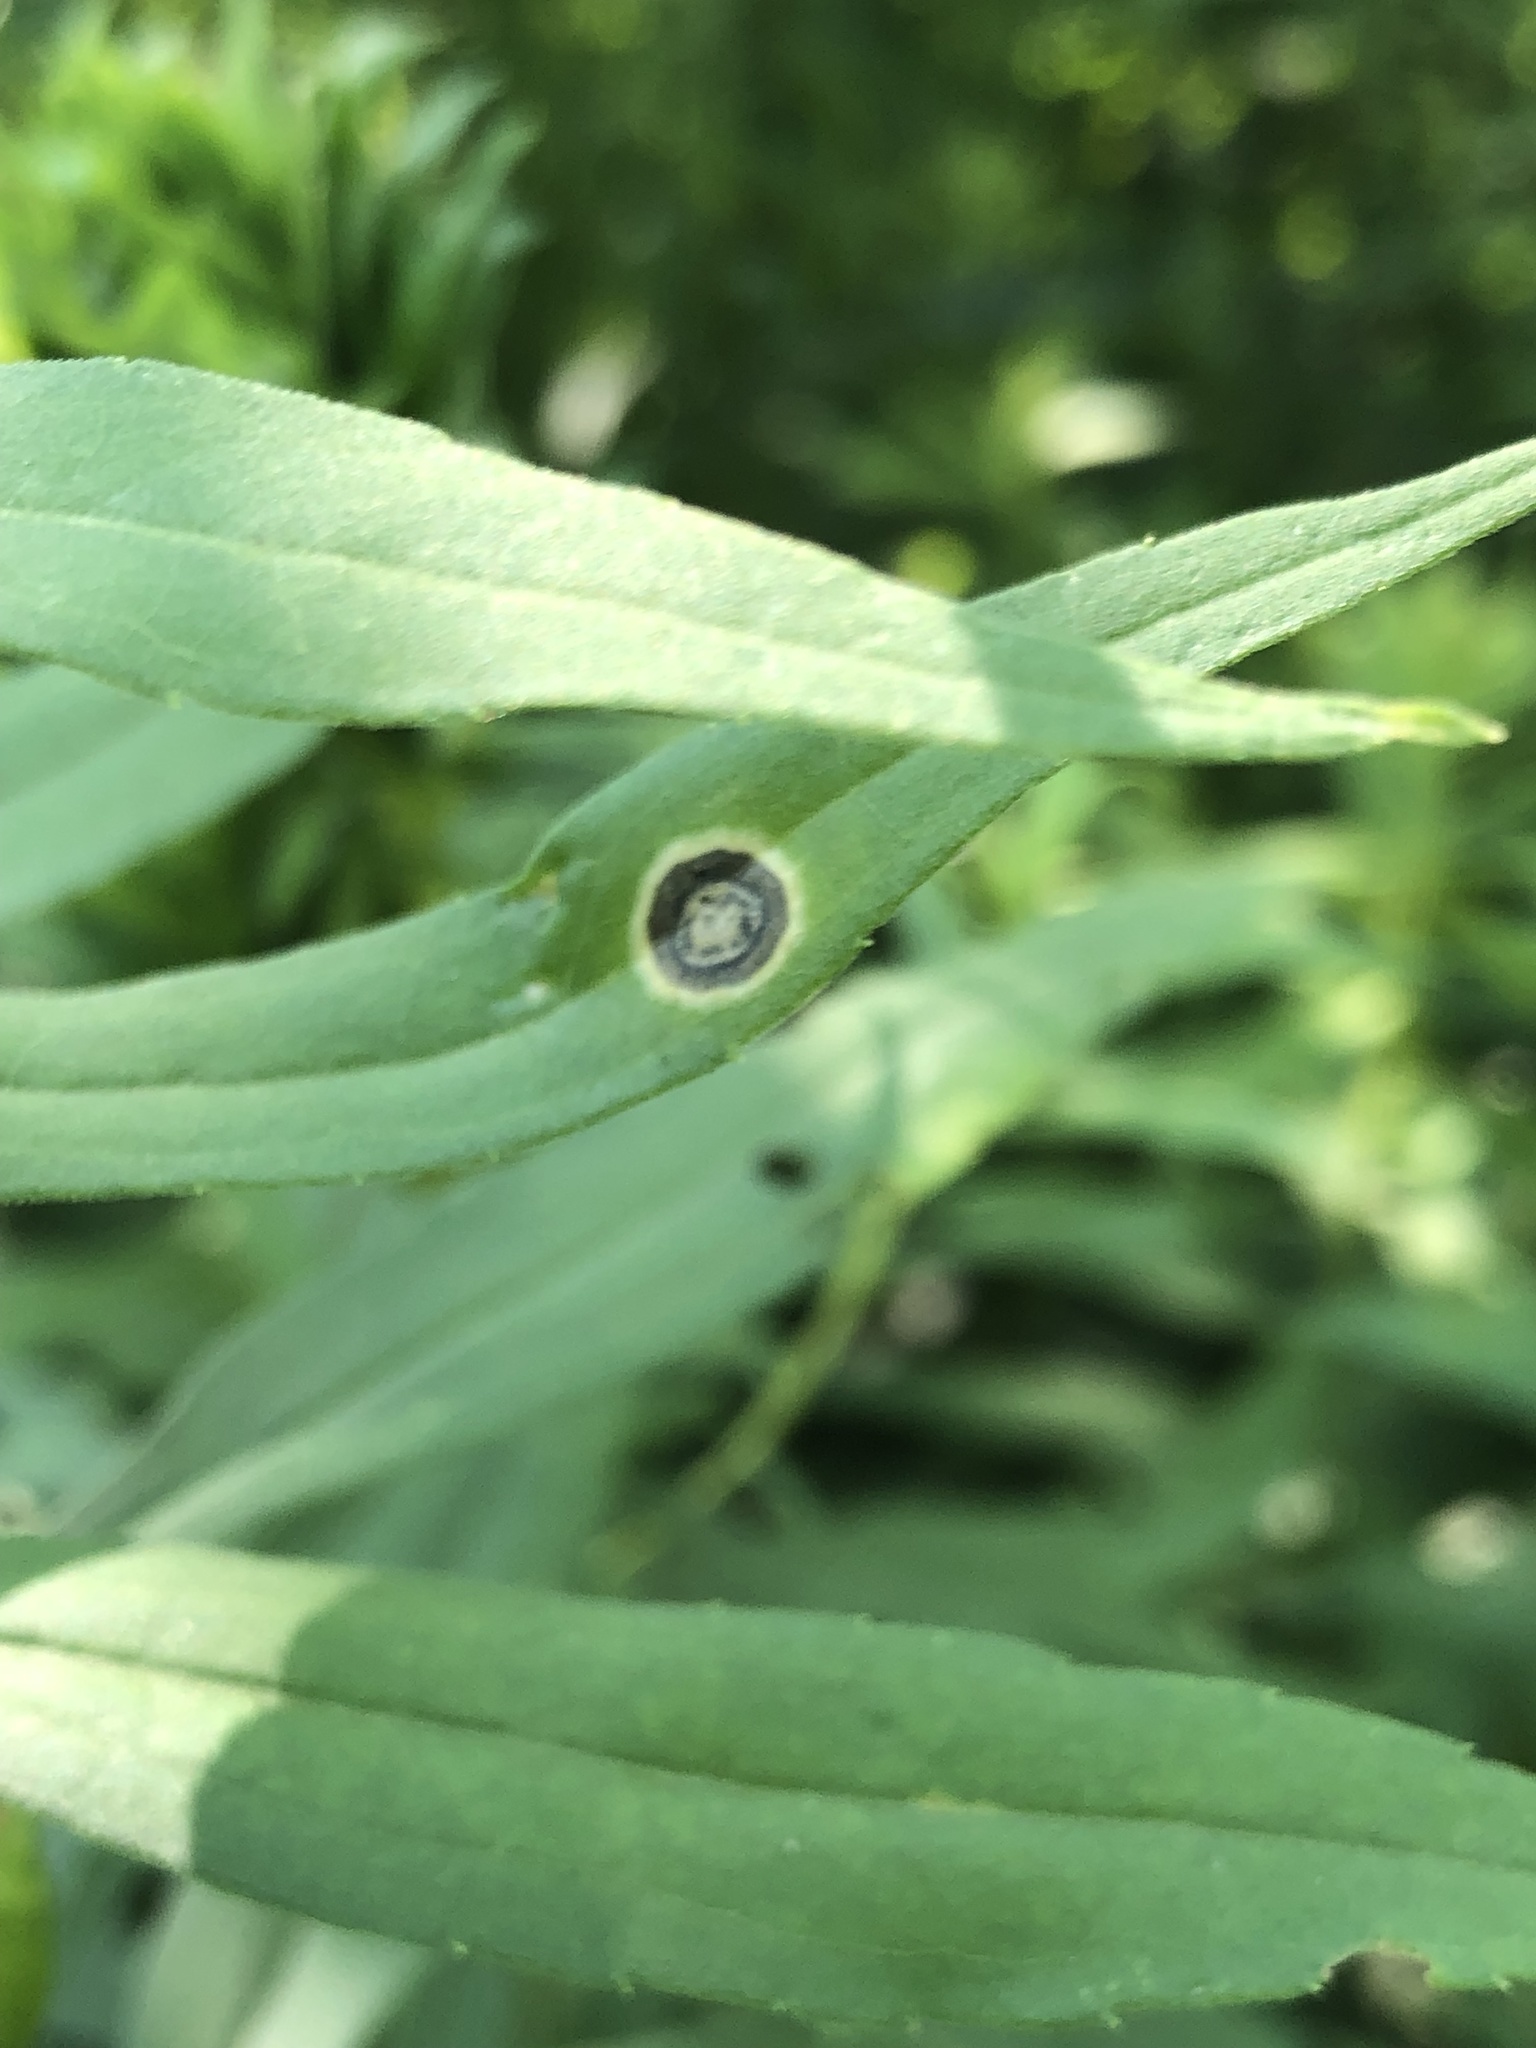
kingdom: Animalia
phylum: Arthropoda
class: Insecta
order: Diptera
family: Cecidomyiidae
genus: Asteromyia
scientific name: Asteromyia carbonifera
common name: Carbonifera goldenrod gall midge
